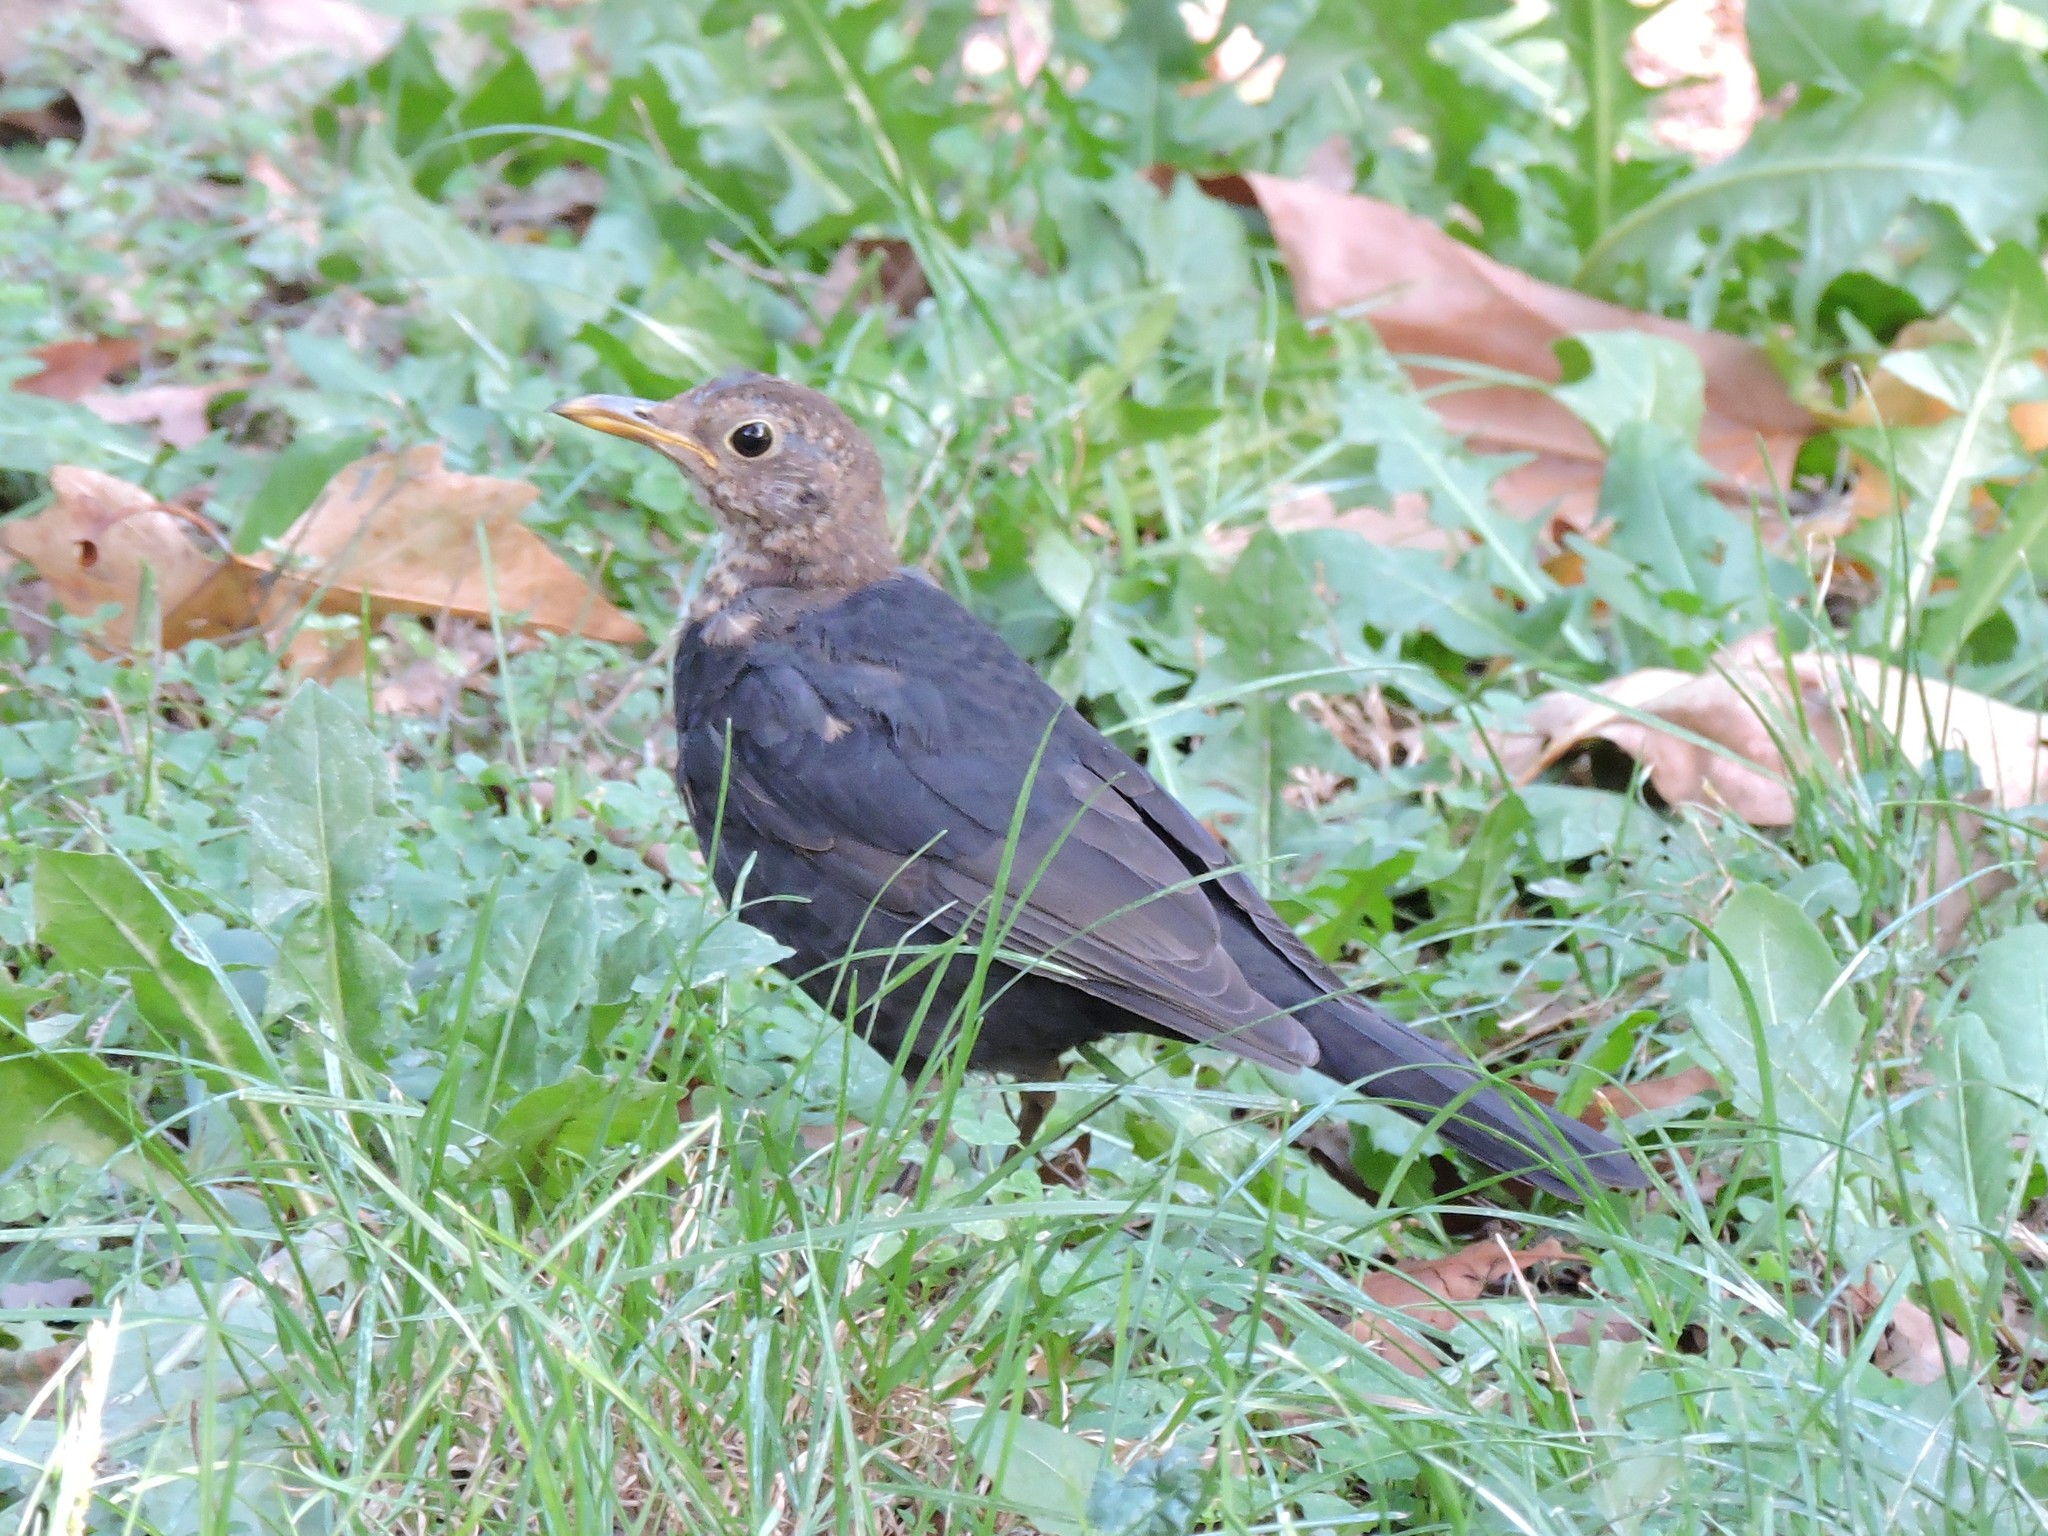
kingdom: Animalia
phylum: Chordata
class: Aves
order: Passeriformes
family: Turdidae
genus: Turdus
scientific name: Turdus merula
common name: Common blackbird
